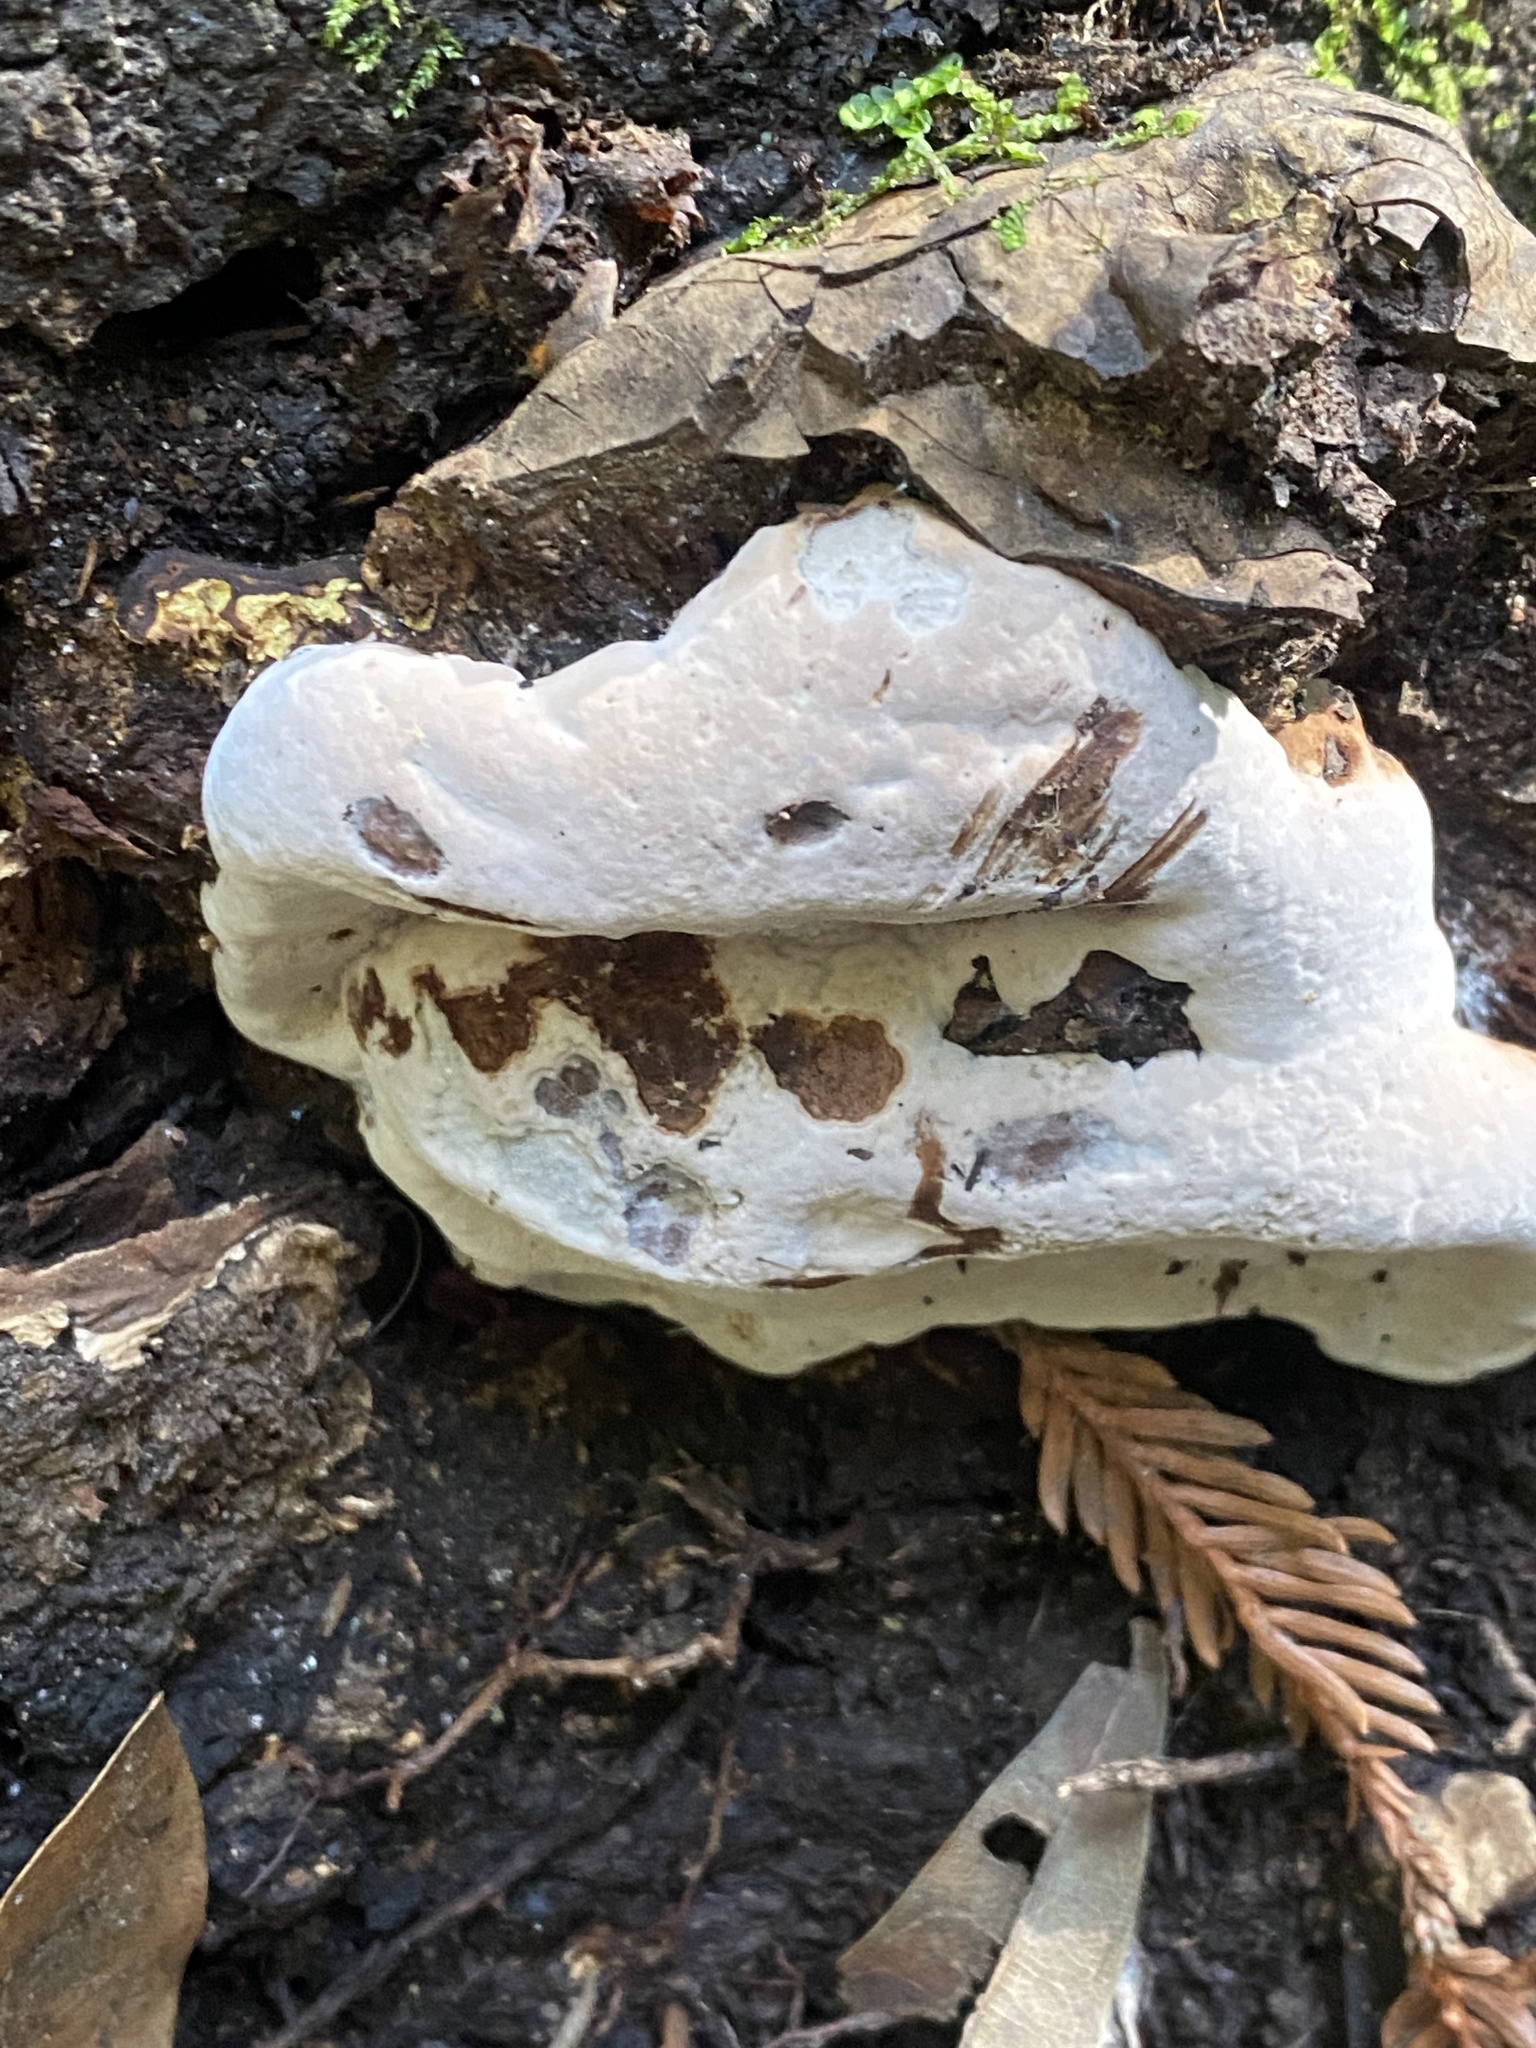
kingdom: Fungi
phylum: Basidiomycota
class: Agaricomycetes
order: Polyporales
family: Polyporaceae
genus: Ganoderma
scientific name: Ganoderma brownii
